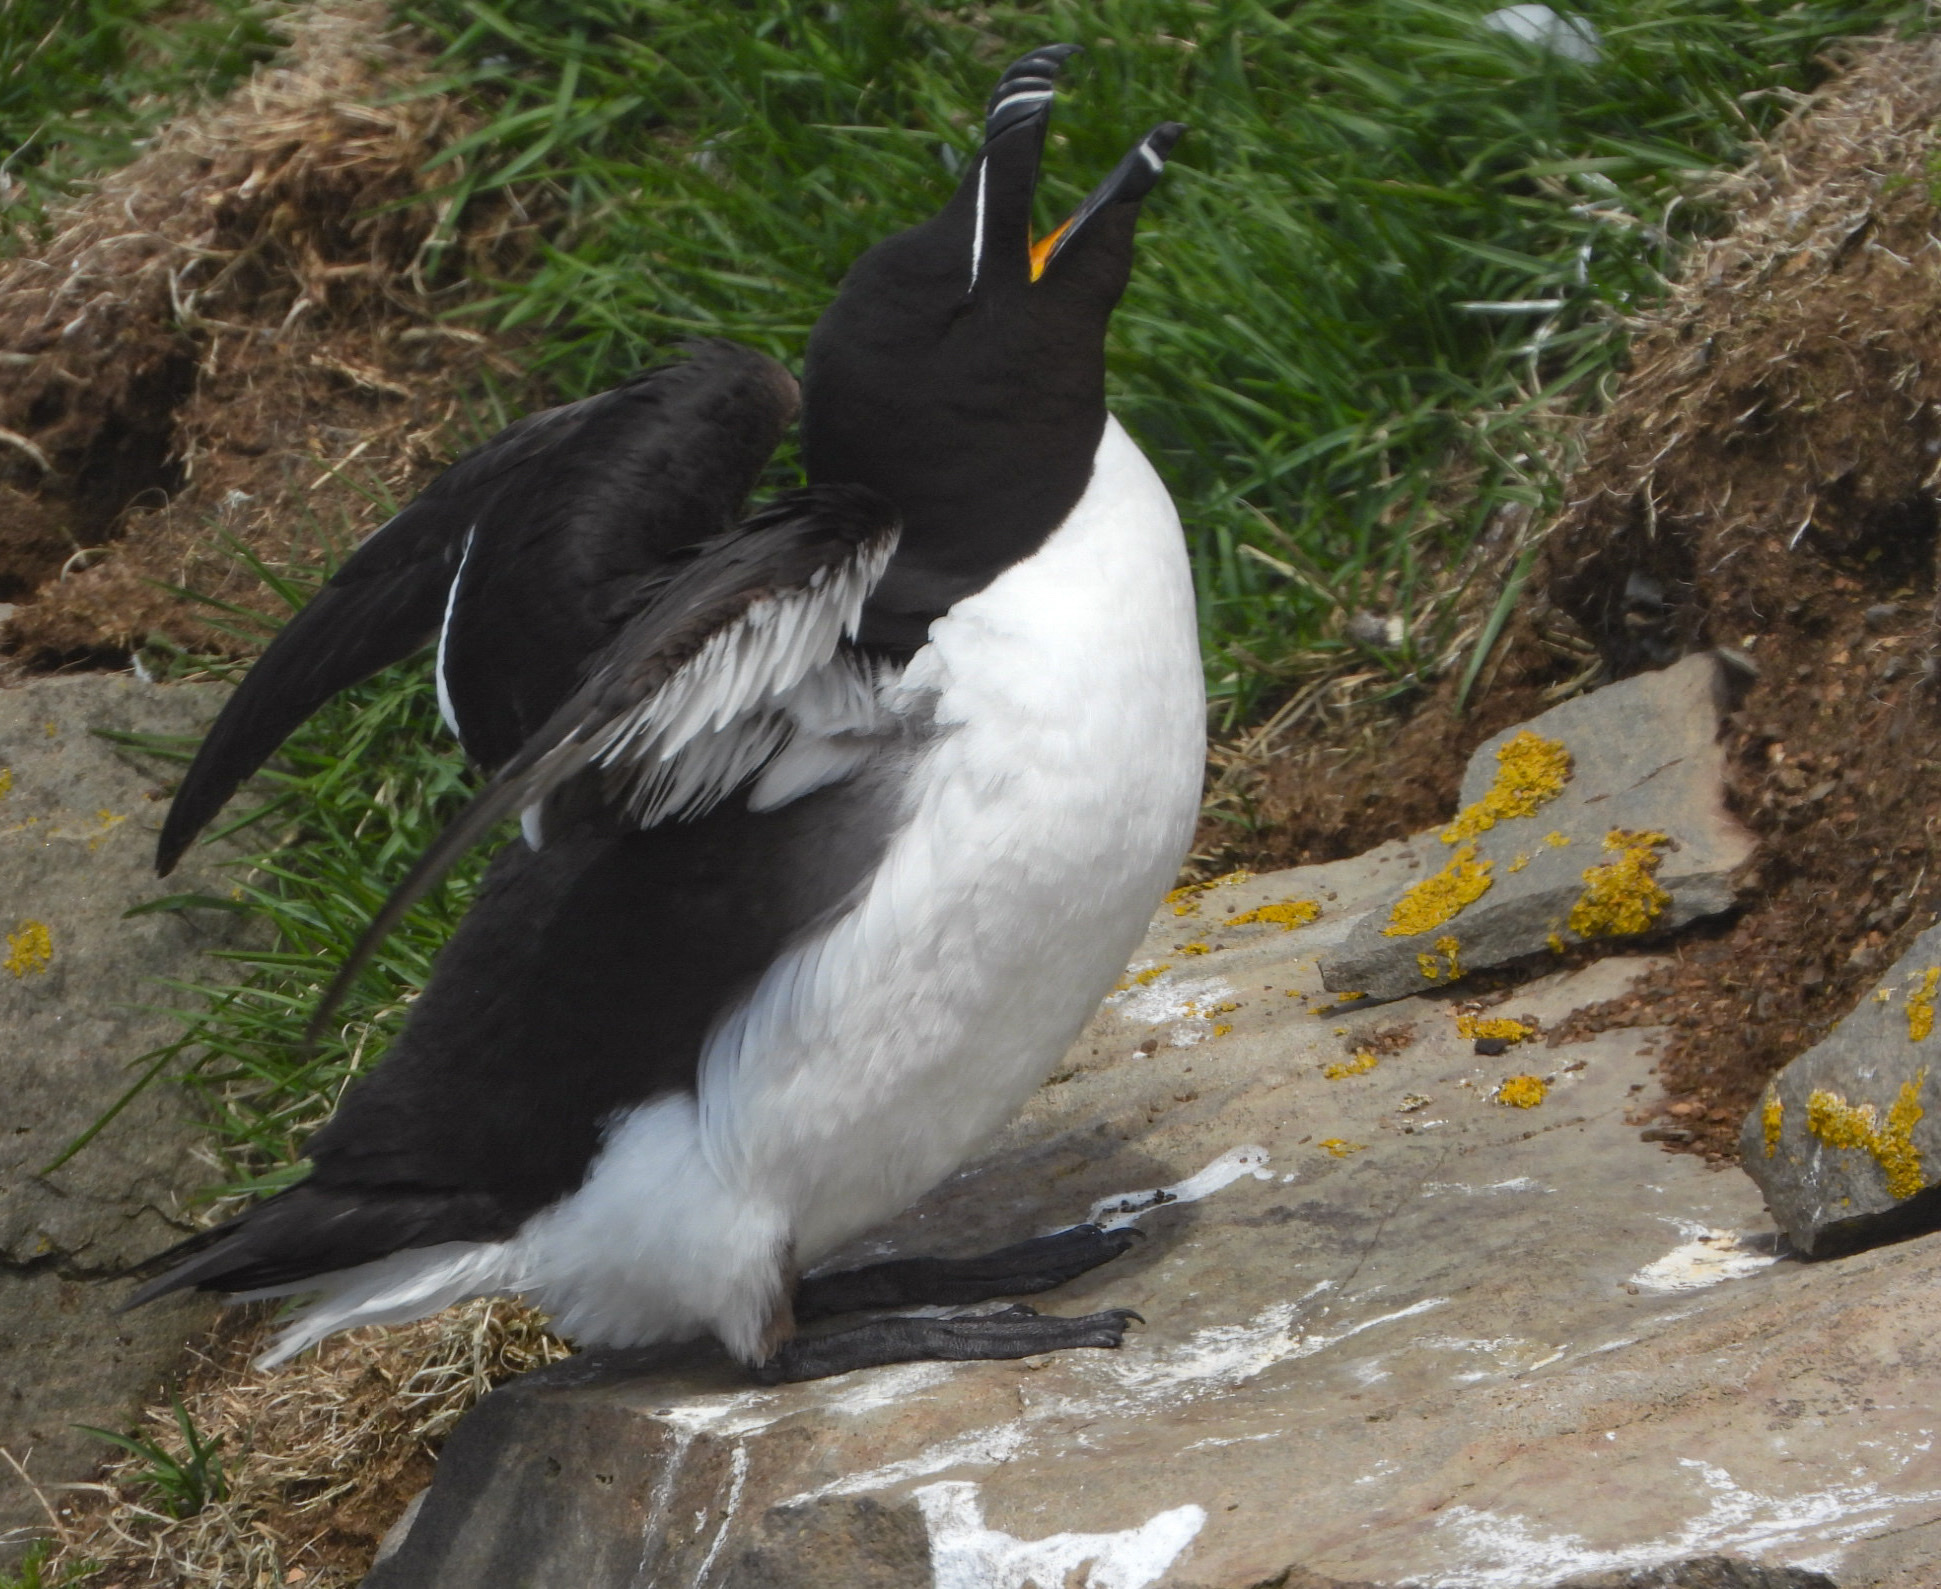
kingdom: Animalia
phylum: Chordata
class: Aves
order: Charadriiformes
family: Alcidae
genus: Alca
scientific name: Alca torda
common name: Razorbill
